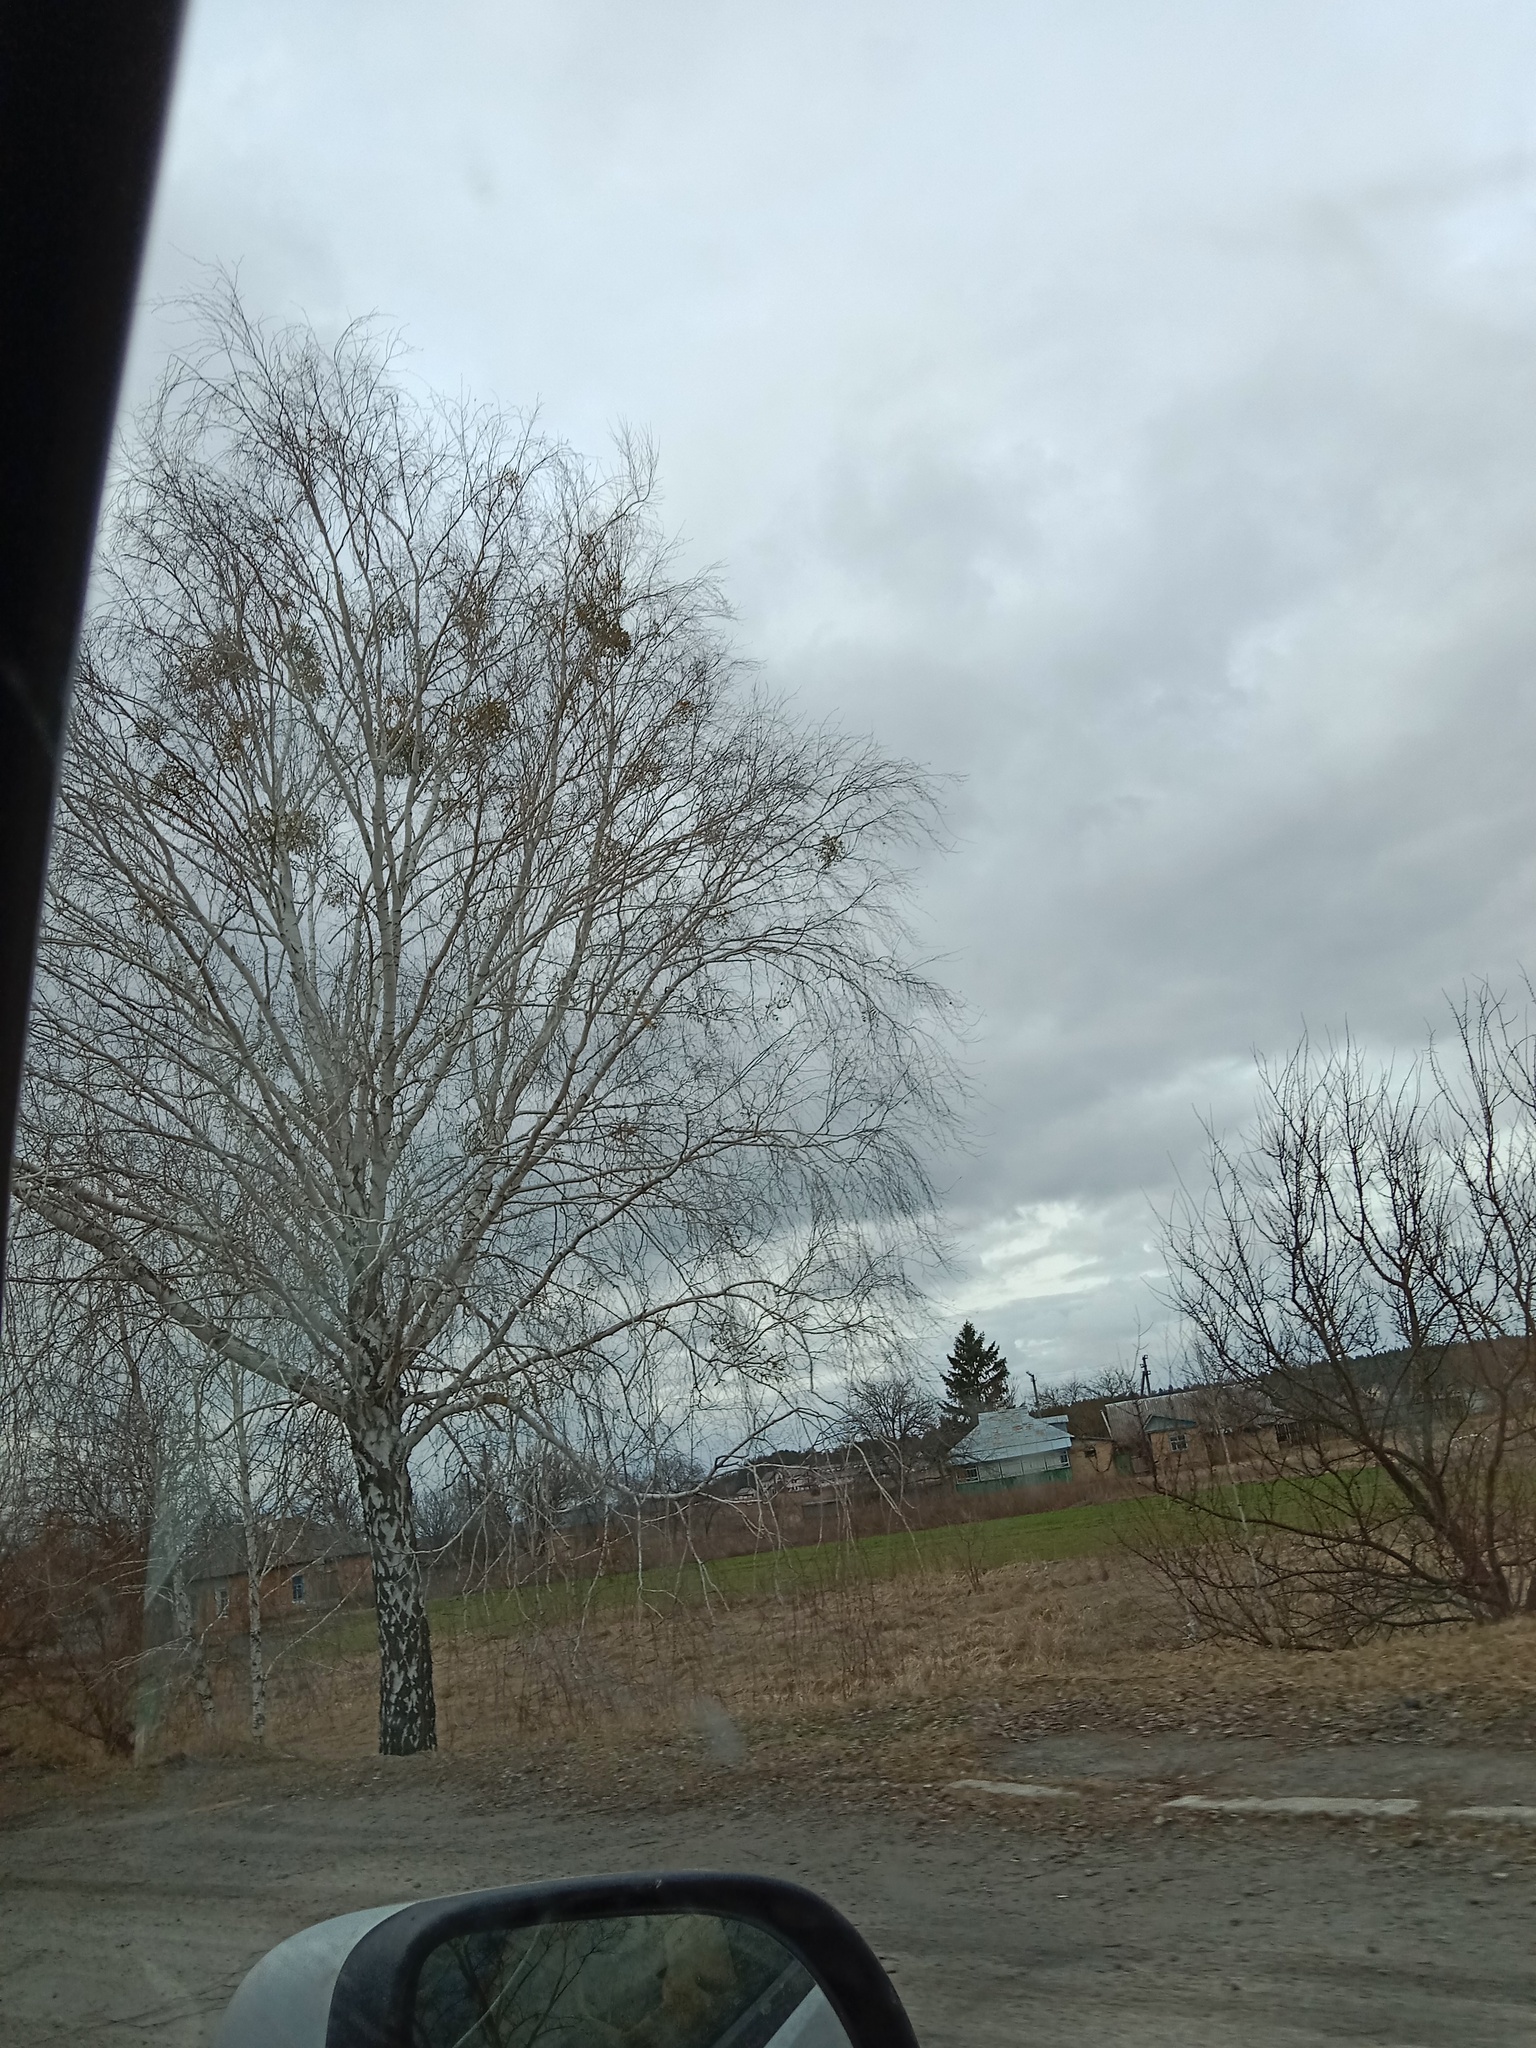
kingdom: Plantae
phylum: Tracheophyta
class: Magnoliopsida
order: Santalales
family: Viscaceae
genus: Viscum
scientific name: Viscum album
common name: Mistletoe
